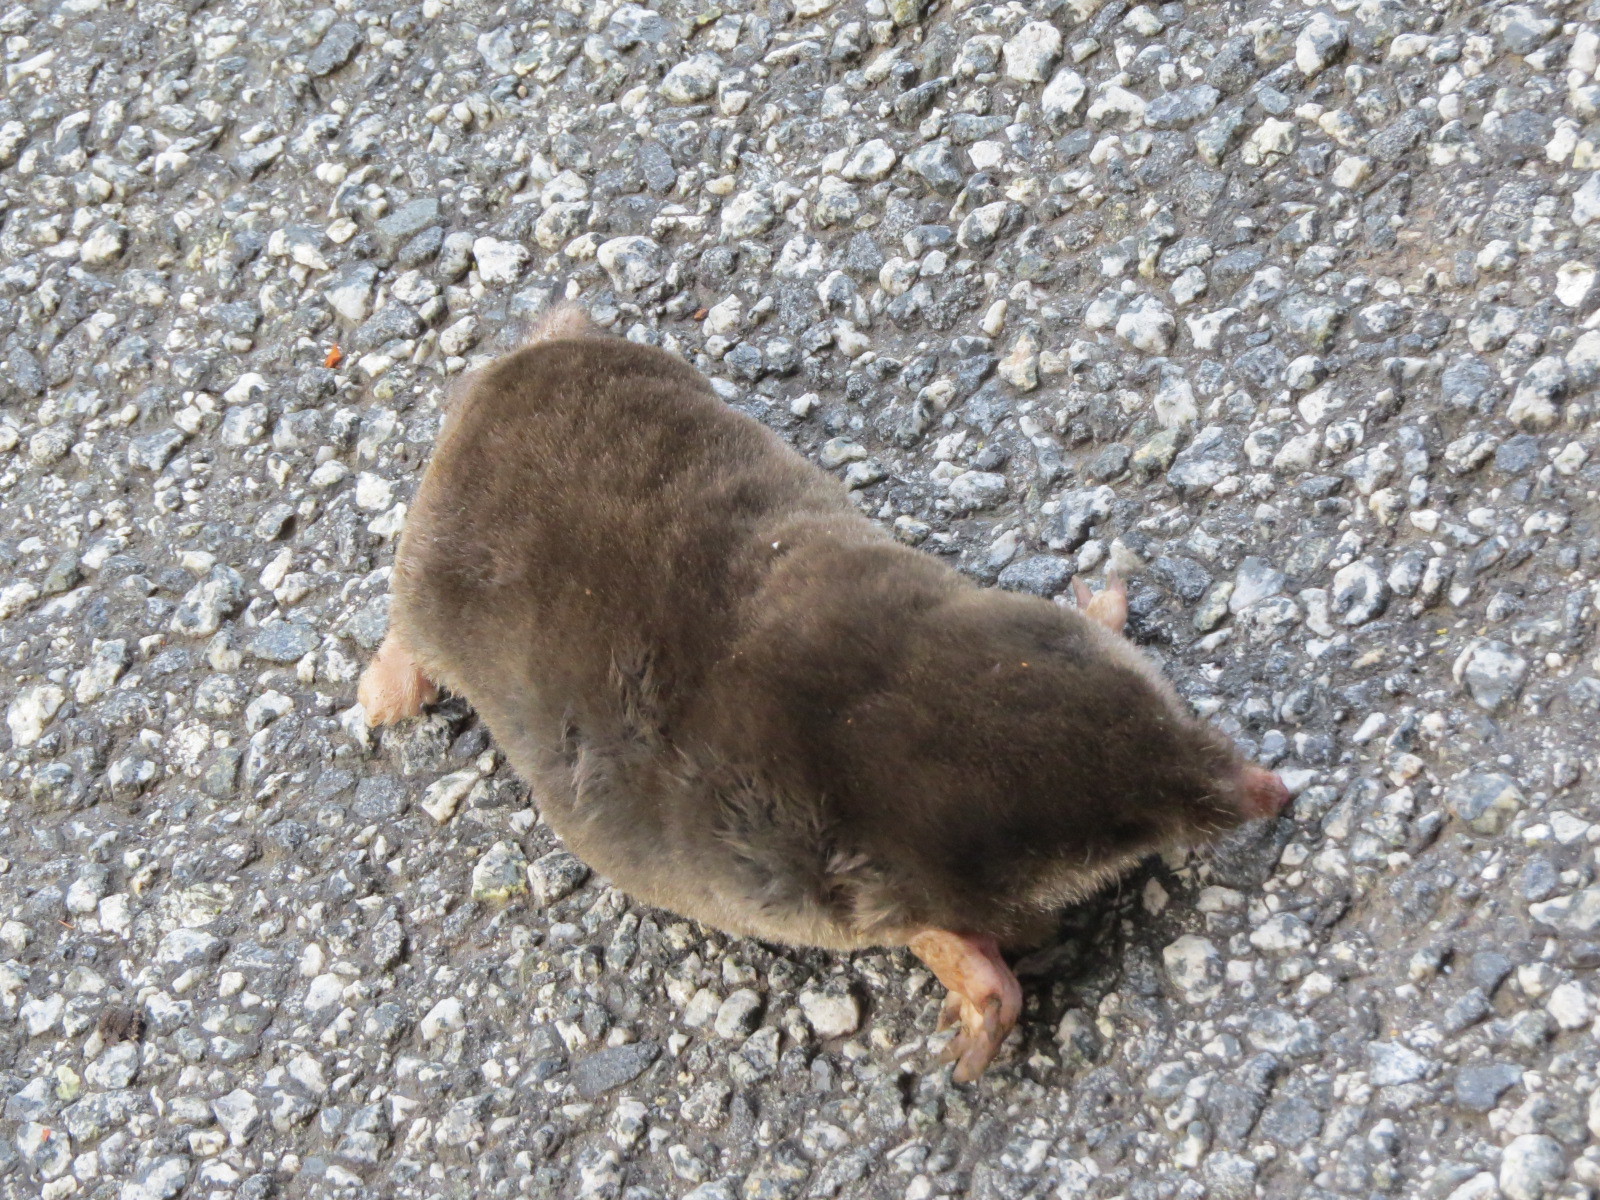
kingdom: Animalia
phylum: Chordata
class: Mammalia
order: Soricomorpha
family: Talpidae
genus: Scapanus
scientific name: Scapanus latimanus
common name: Broad-footed mole
